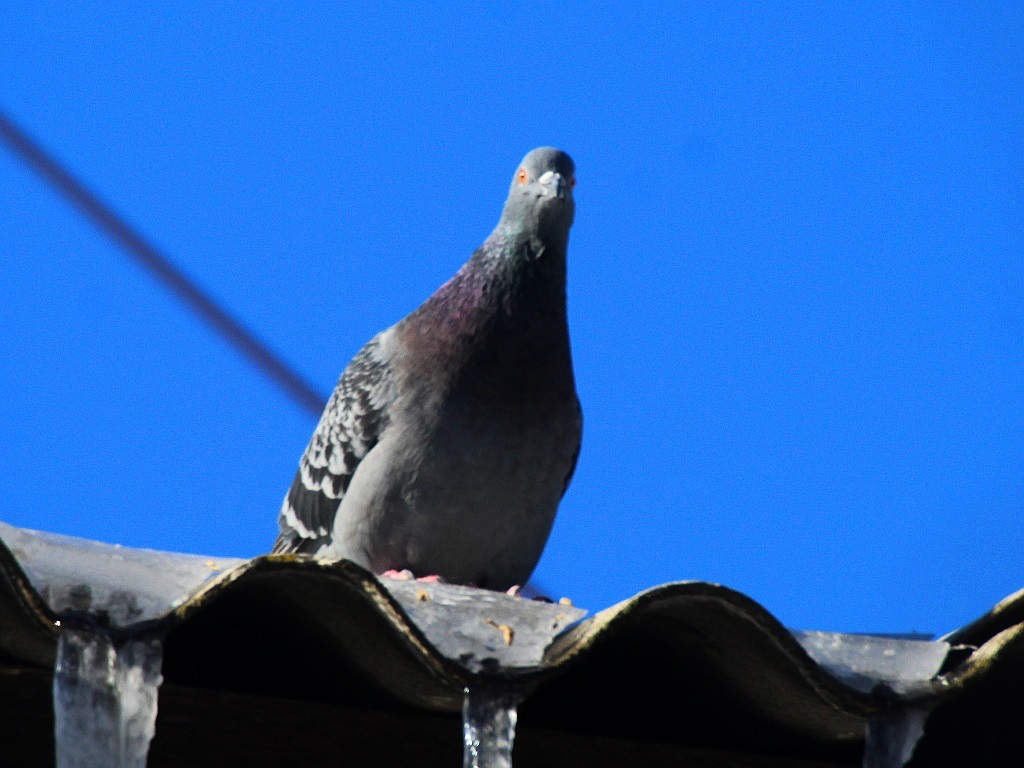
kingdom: Animalia
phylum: Chordata
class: Aves
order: Columbiformes
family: Columbidae
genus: Columba
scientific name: Columba livia
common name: Rock pigeon
